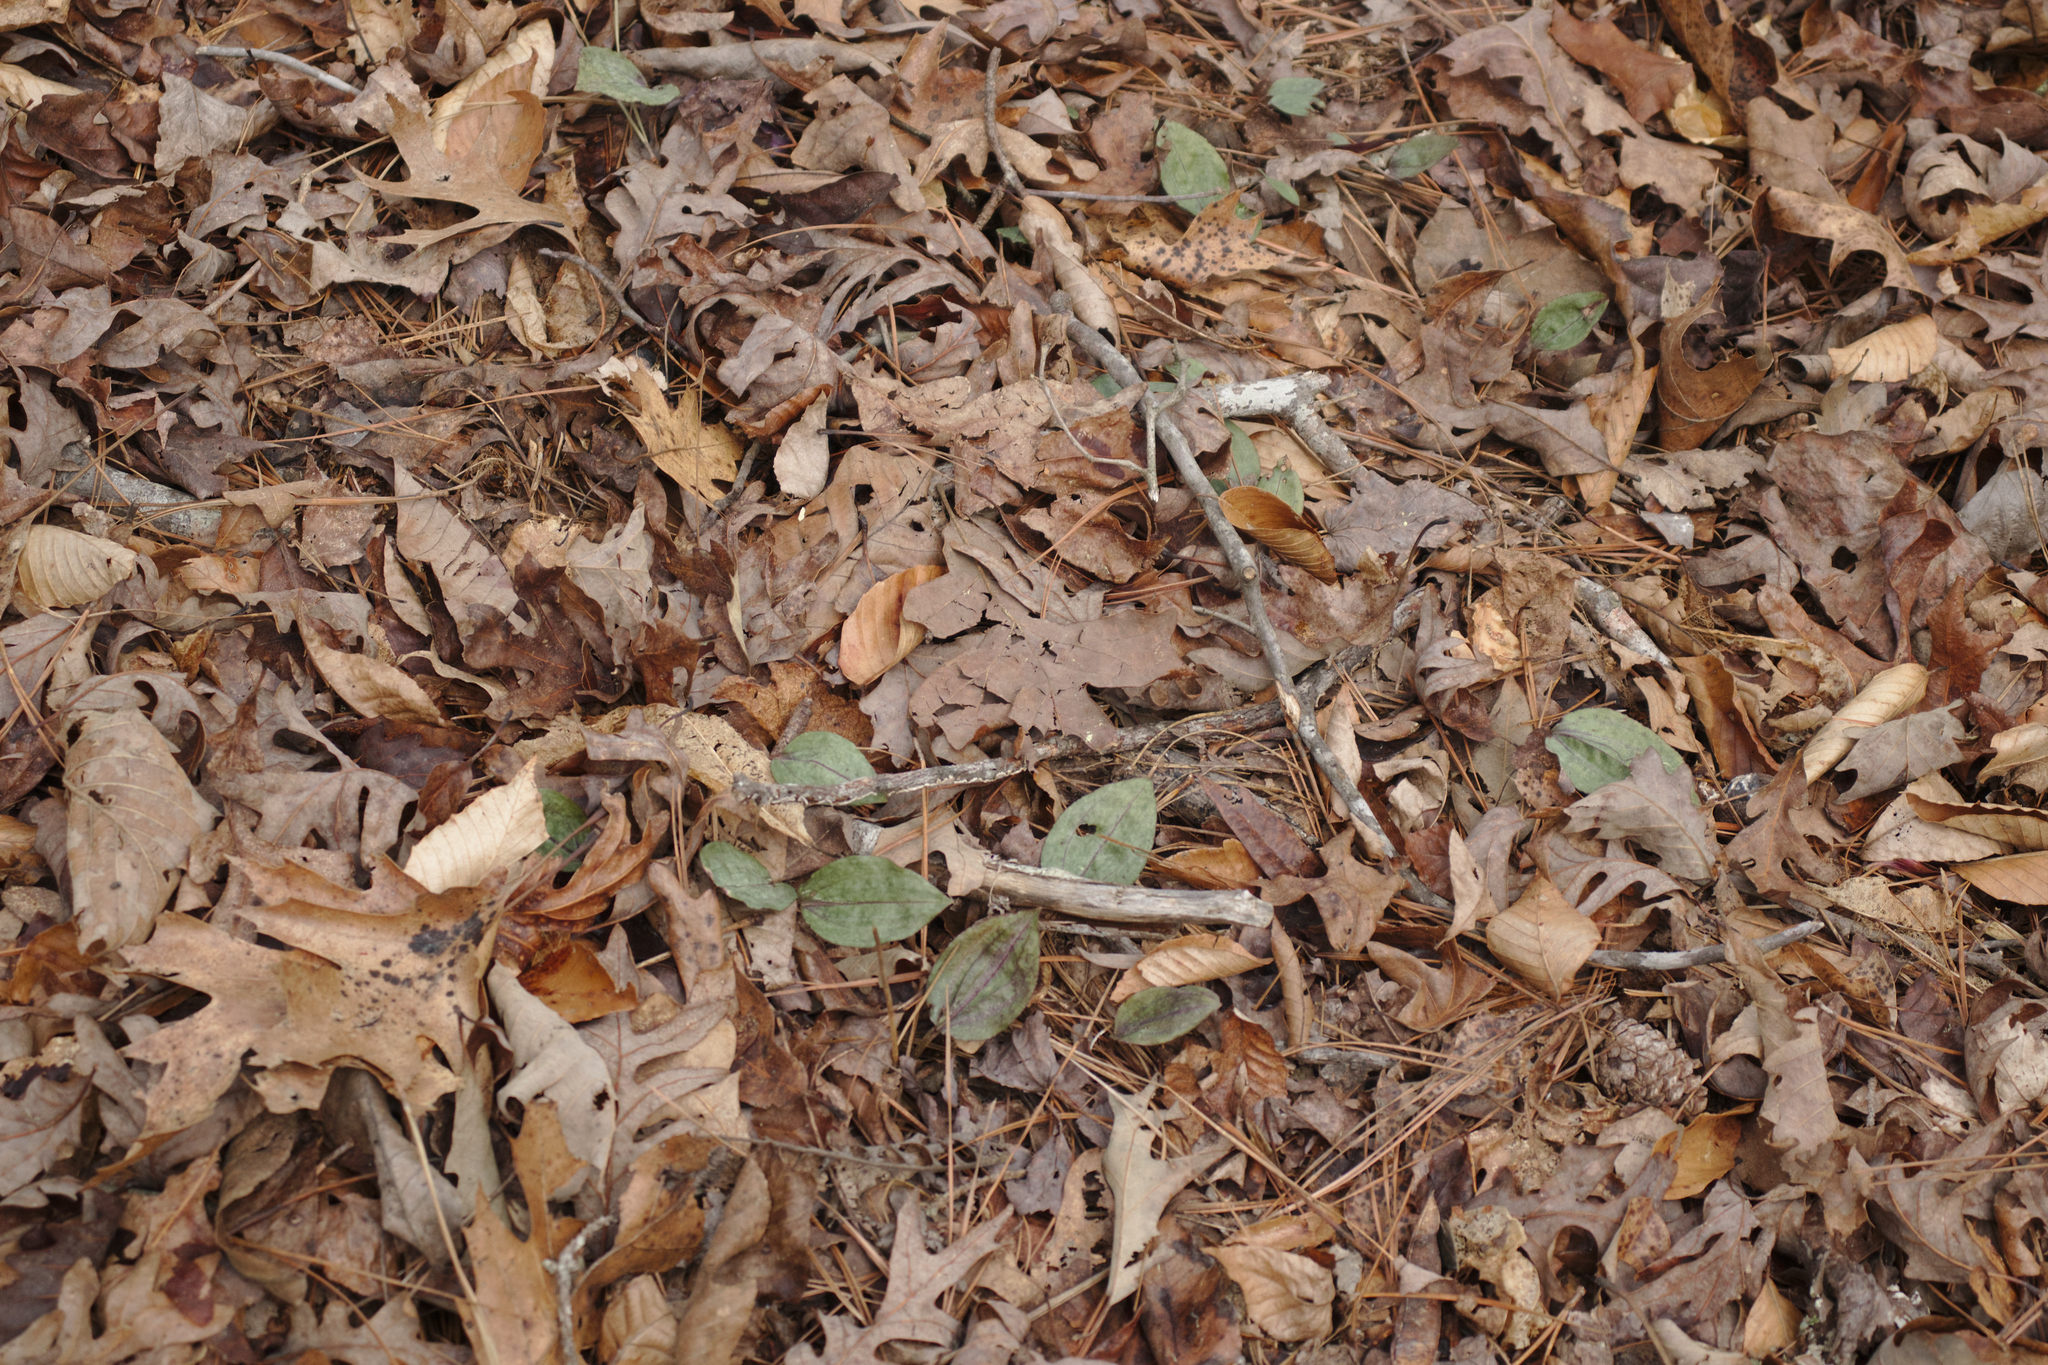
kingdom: Plantae
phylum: Tracheophyta
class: Liliopsida
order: Asparagales
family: Orchidaceae
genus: Tipularia
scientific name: Tipularia discolor
